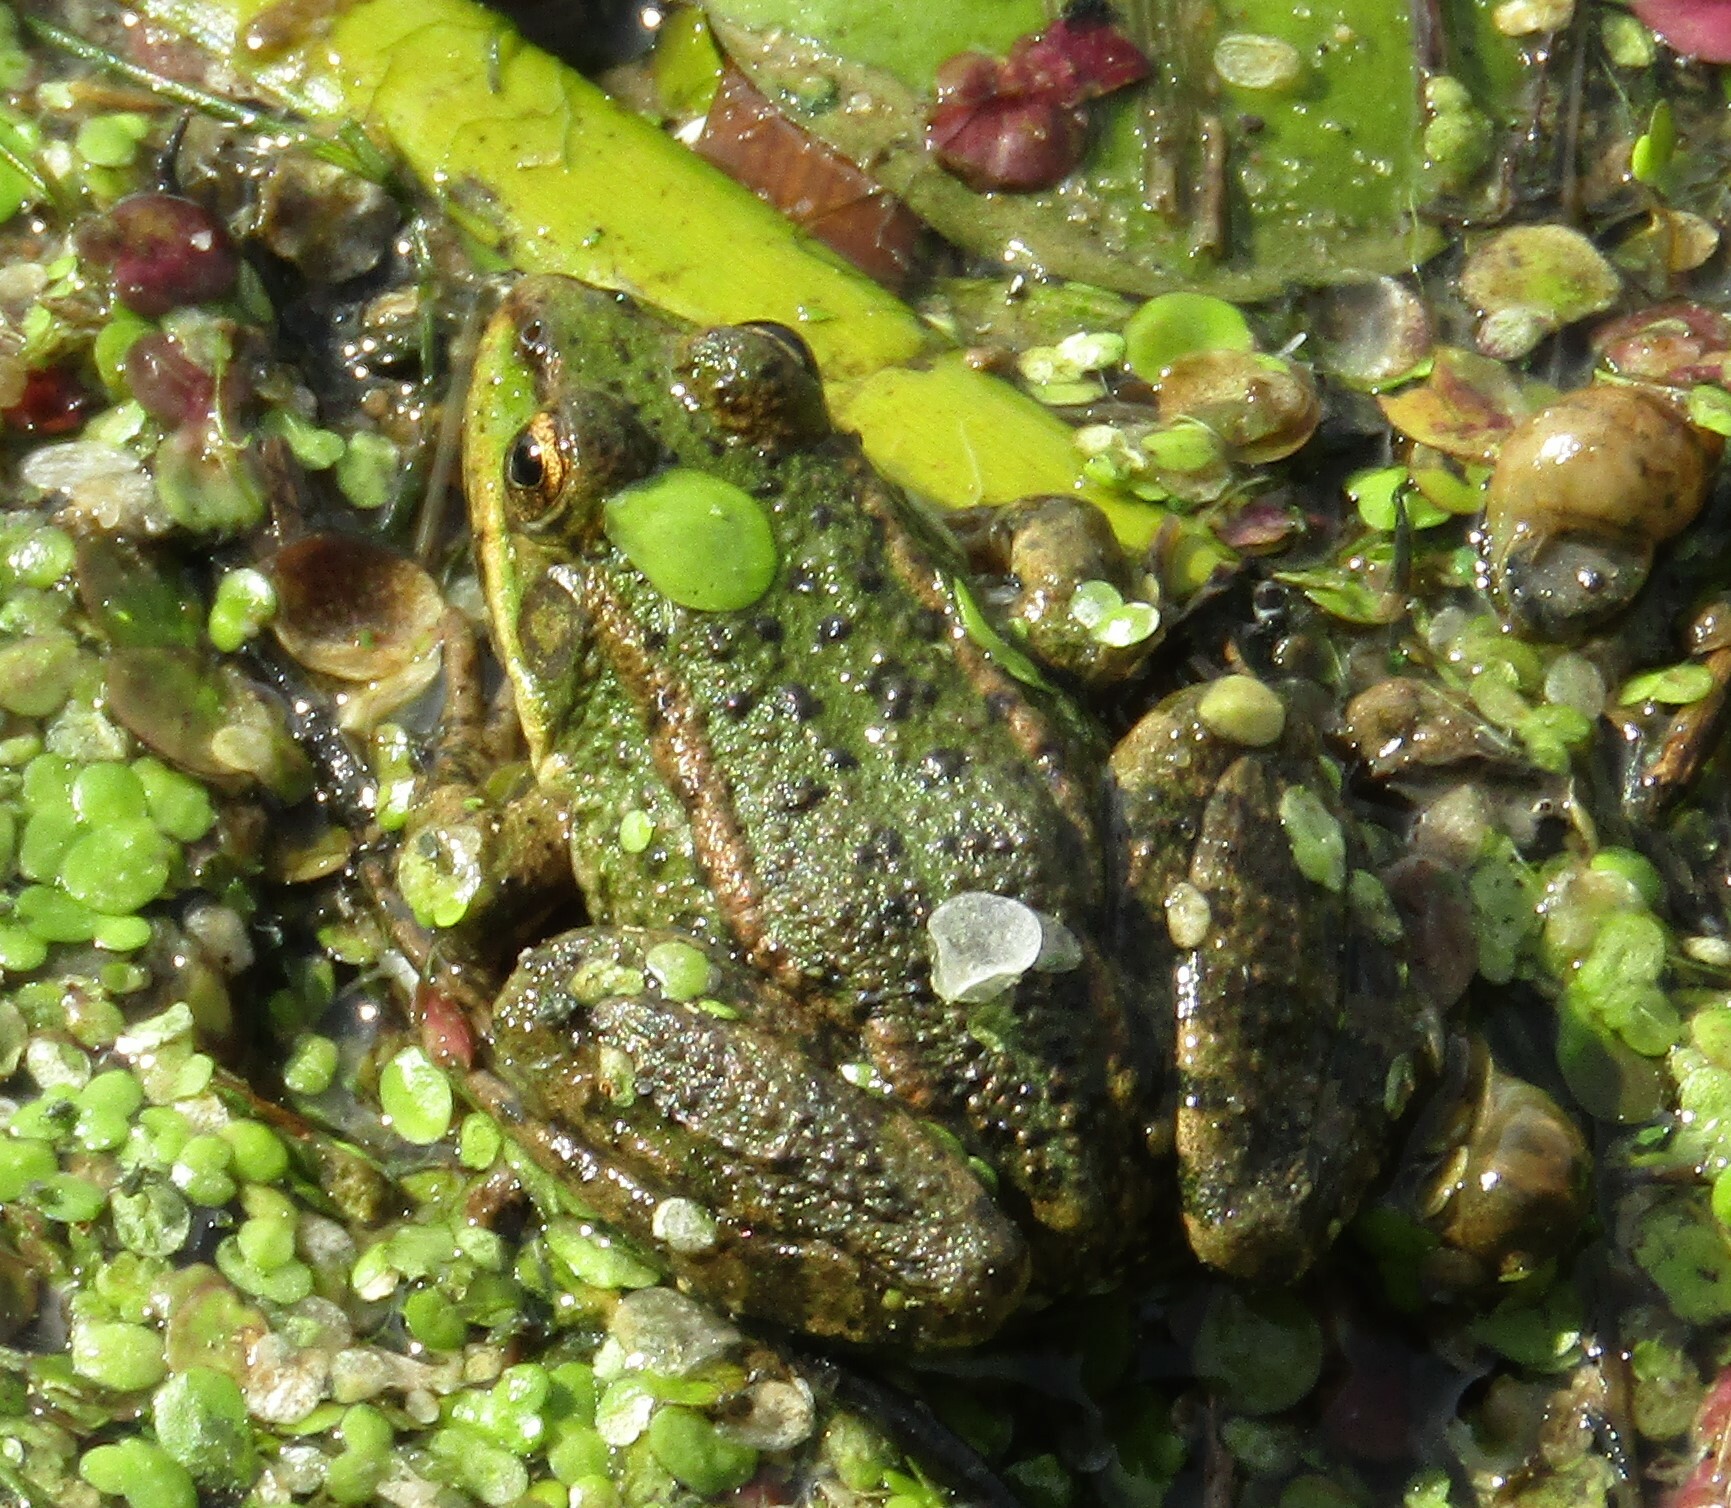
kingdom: Animalia
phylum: Chordata
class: Amphibia
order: Anura
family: Ranidae
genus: Pelophylax
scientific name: Pelophylax ridibundus
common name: Marsh frog
